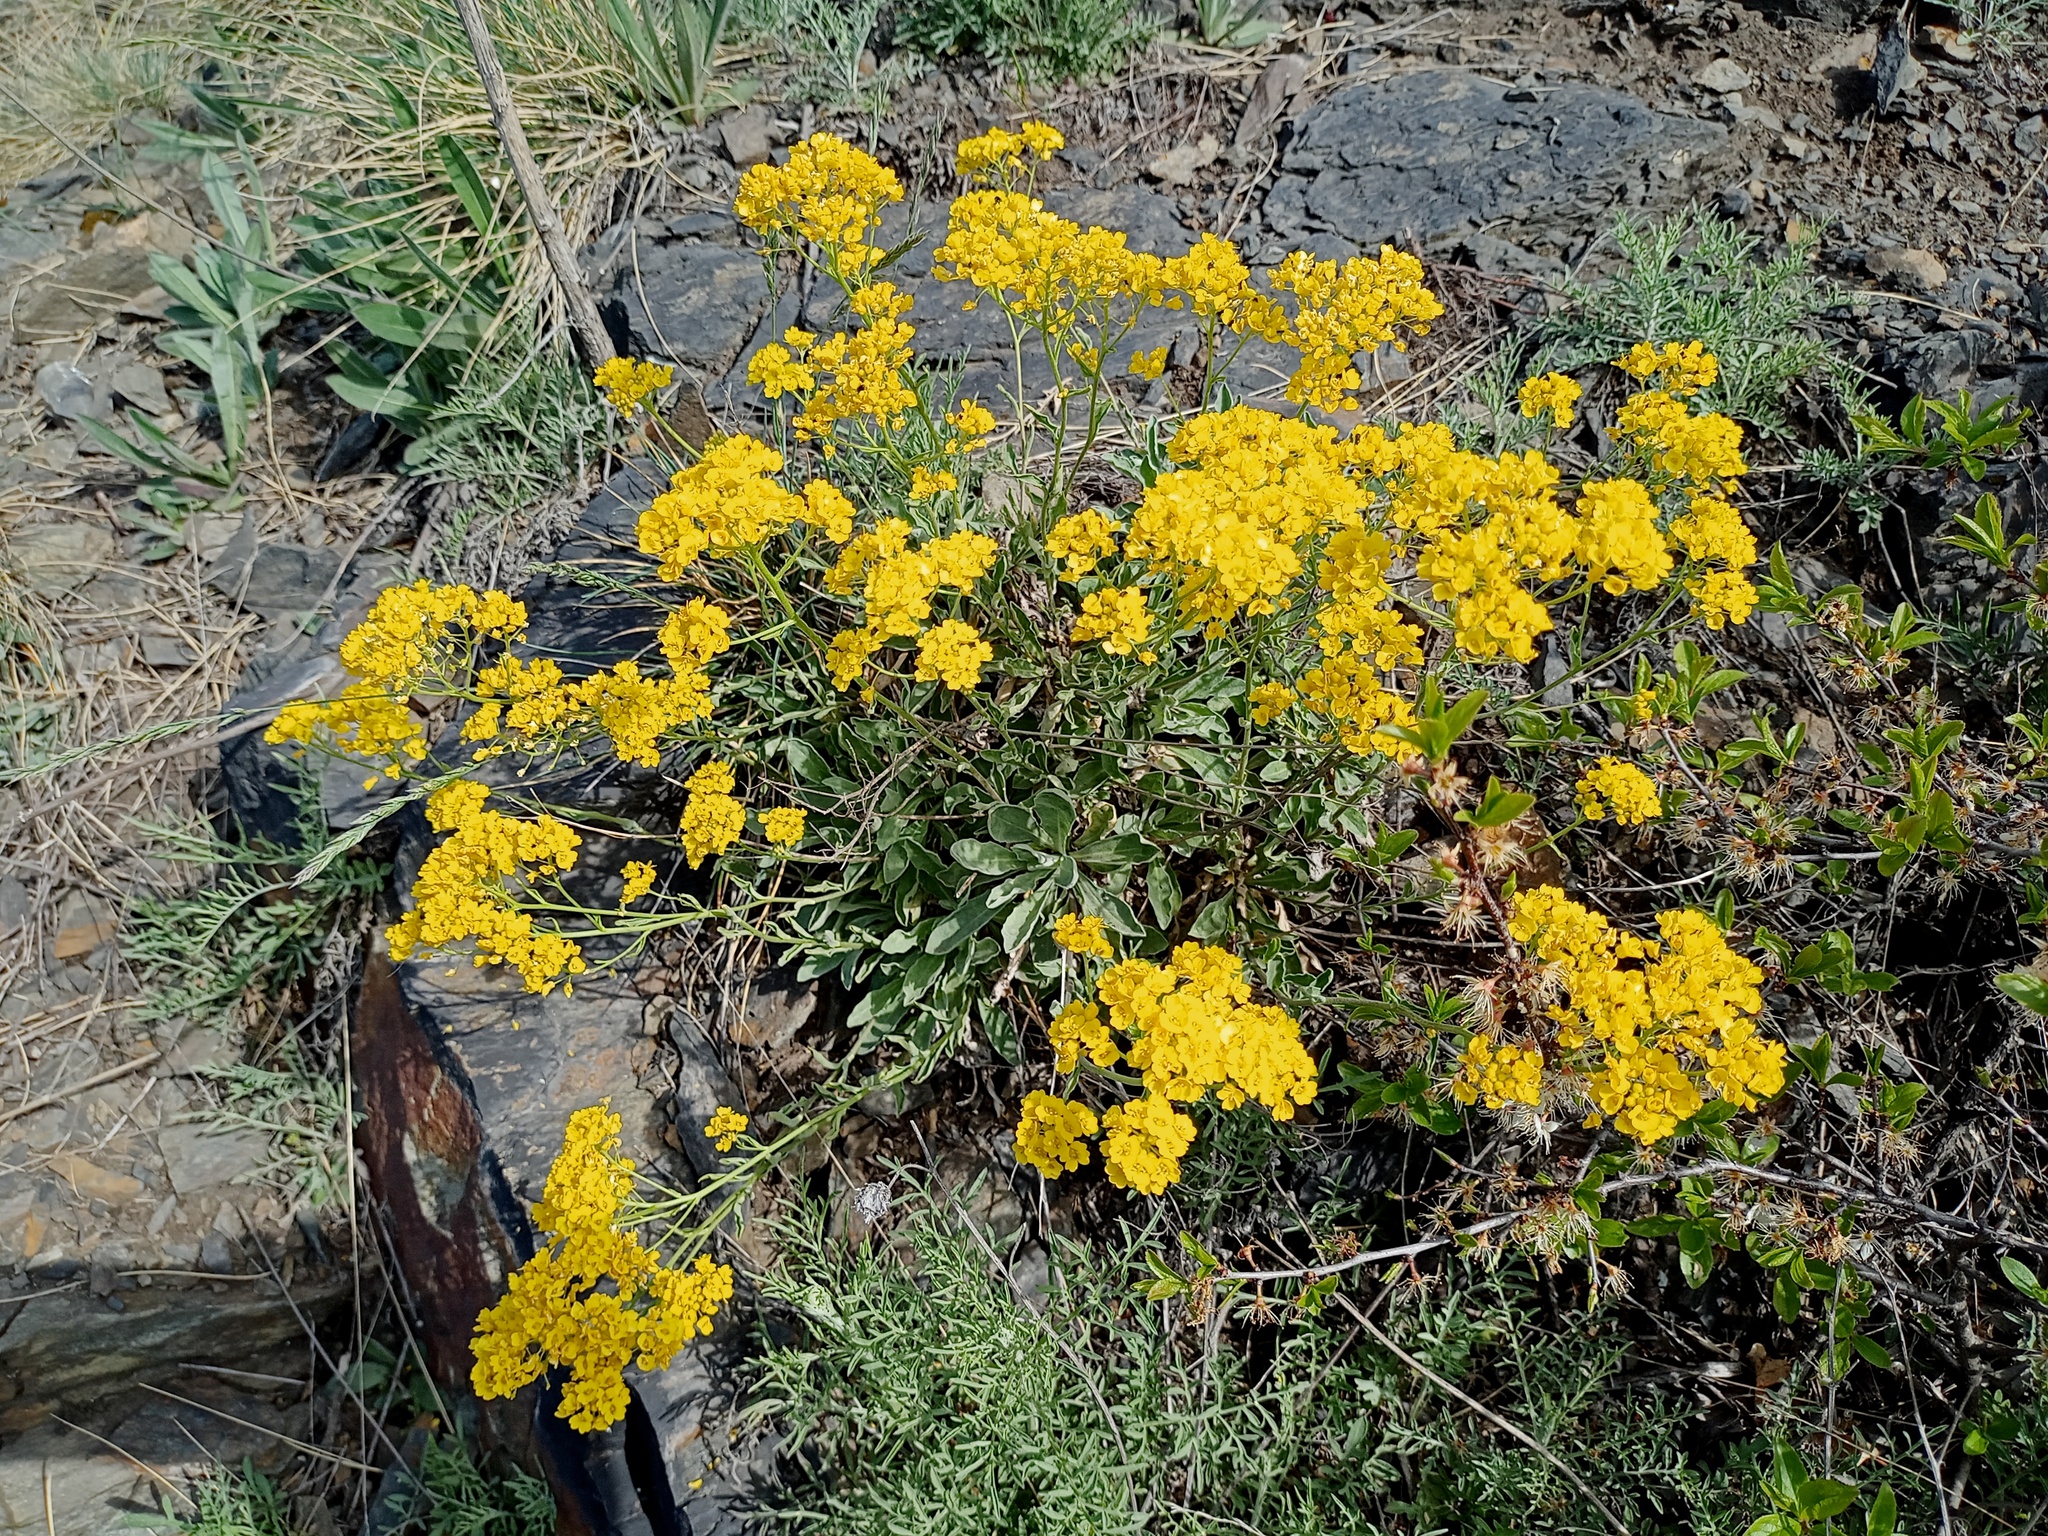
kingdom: Plantae
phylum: Tracheophyta
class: Magnoliopsida
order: Brassicales
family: Brassicaceae
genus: Aurinia
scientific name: Aurinia saxatilis
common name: Golden-tuft alyssum
